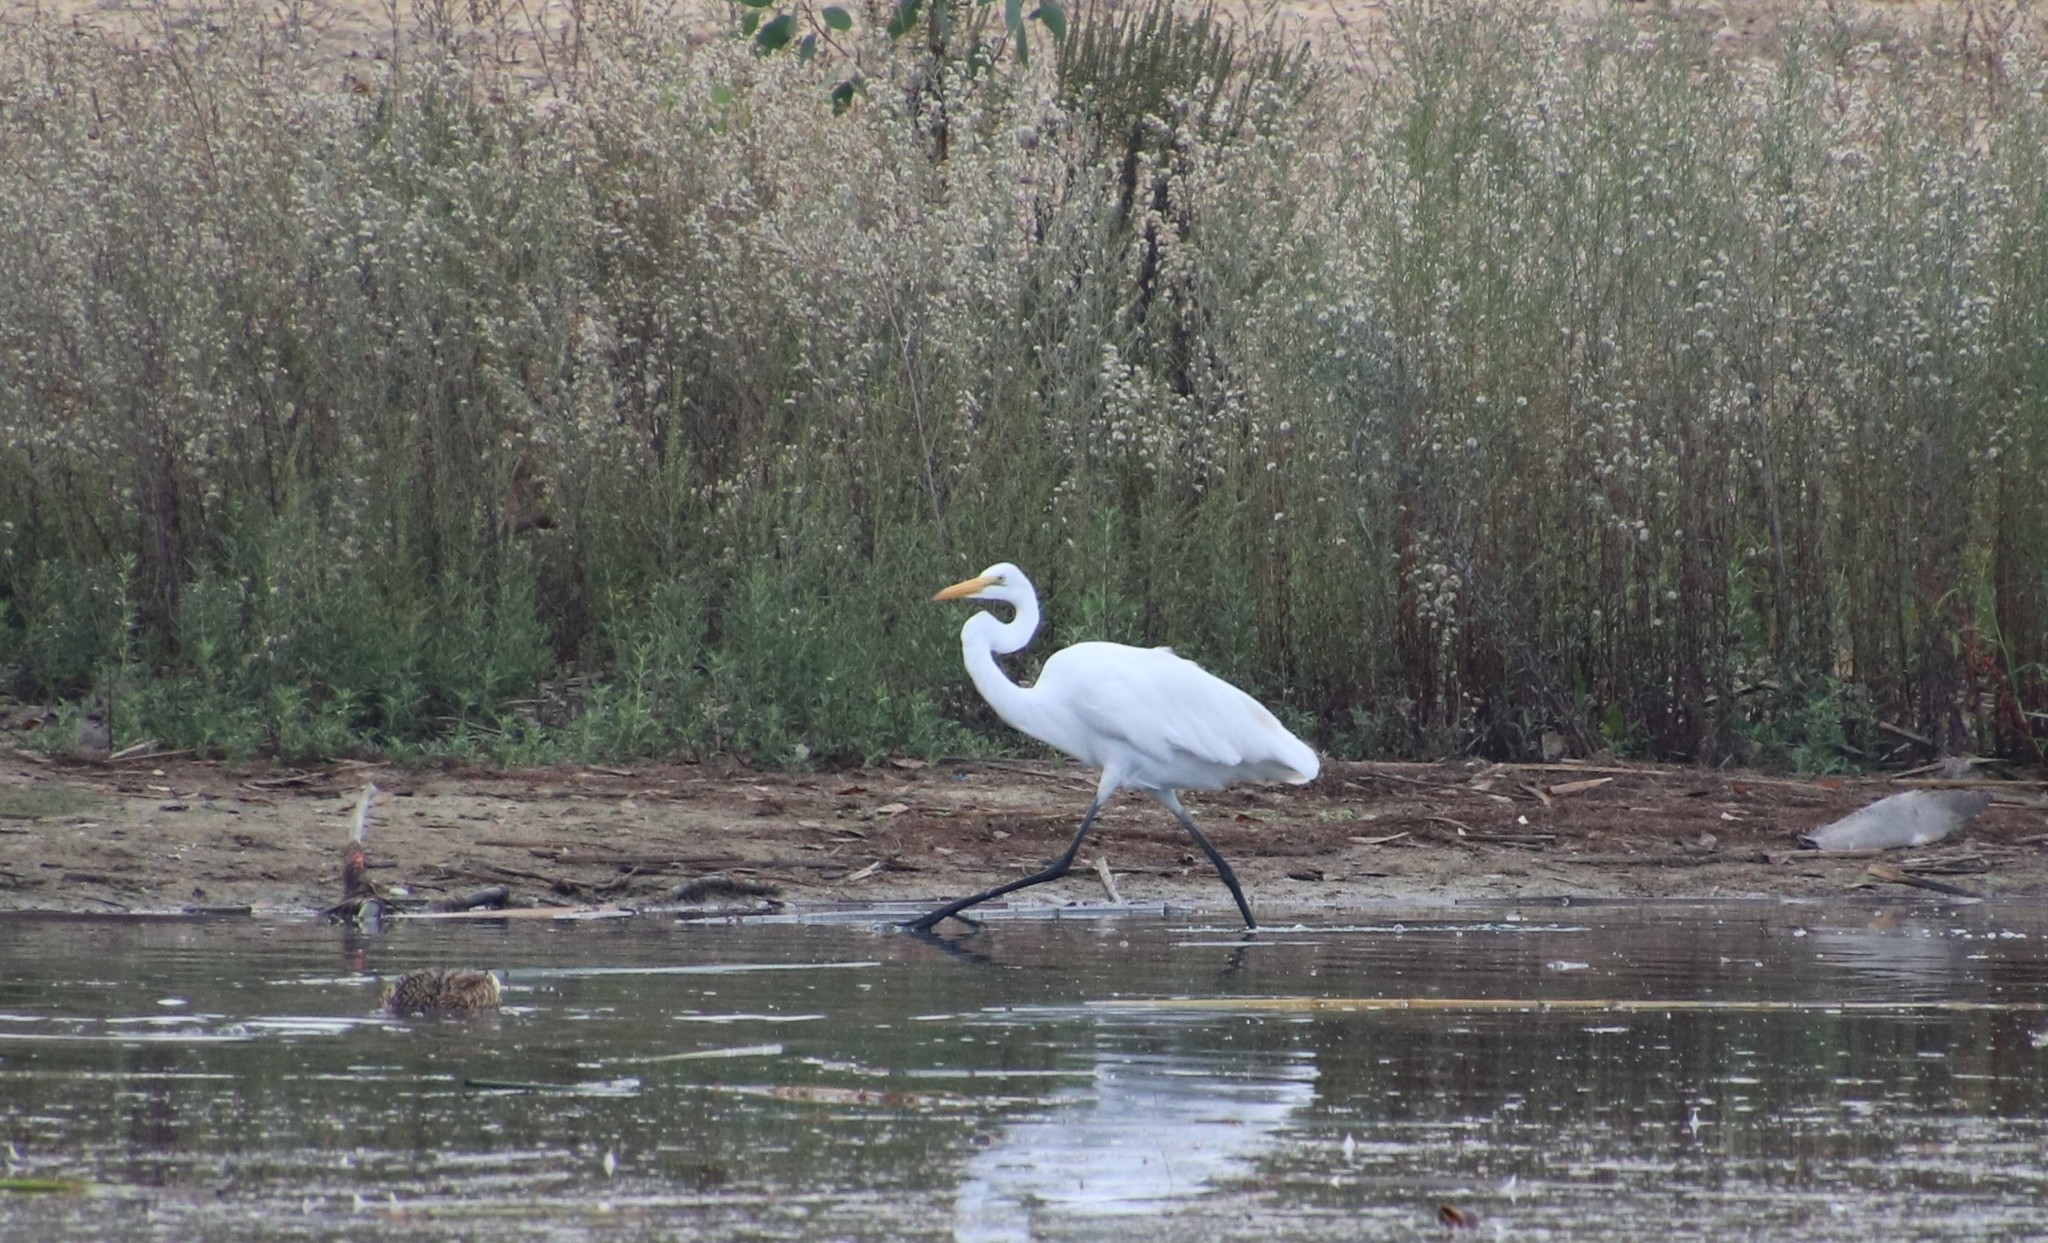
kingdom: Animalia
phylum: Chordata
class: Aves
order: Pelecaniformes
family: Ardeidae
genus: Ardea
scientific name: Ardea alba
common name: Great egret
